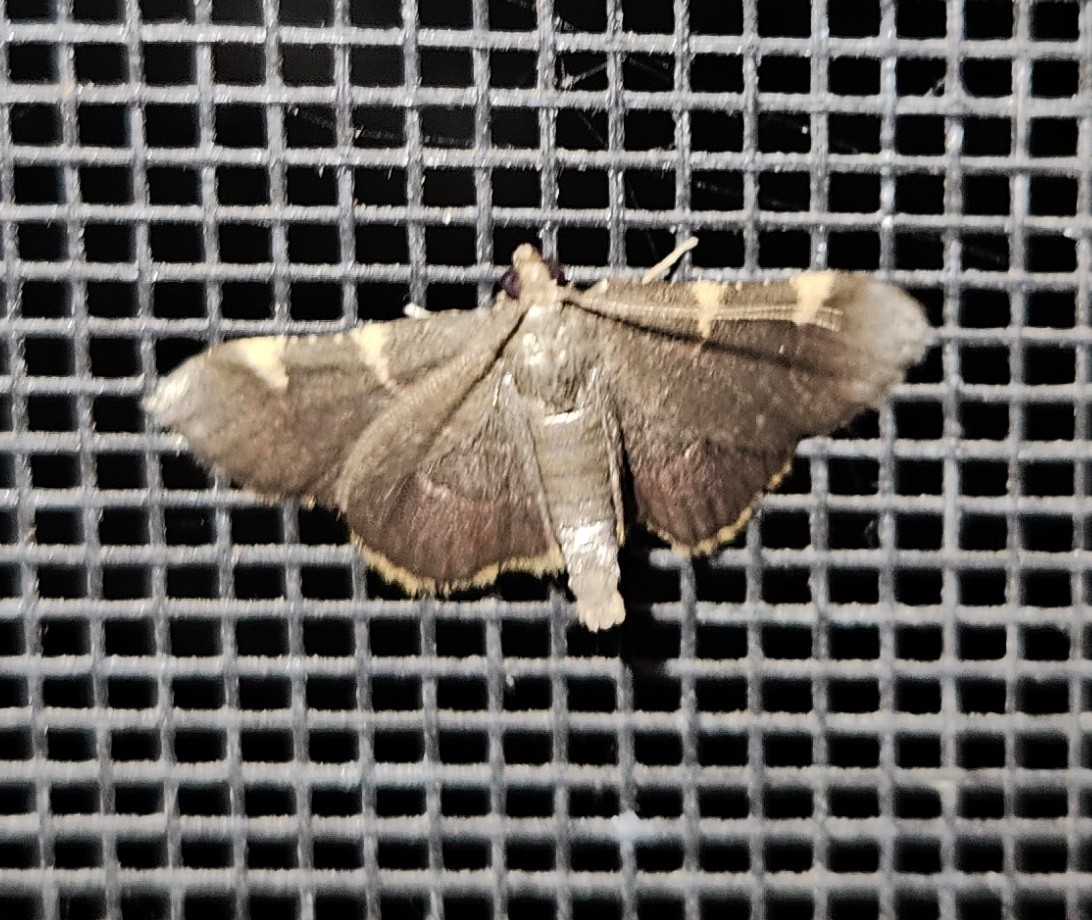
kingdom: Animalia
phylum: Arthropoda
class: Insecta
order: Lepidoptera
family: Pyralidae
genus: Hypsopygia
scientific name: Hypsopygia olinalis
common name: Yellow-fringed dolichomia moth
